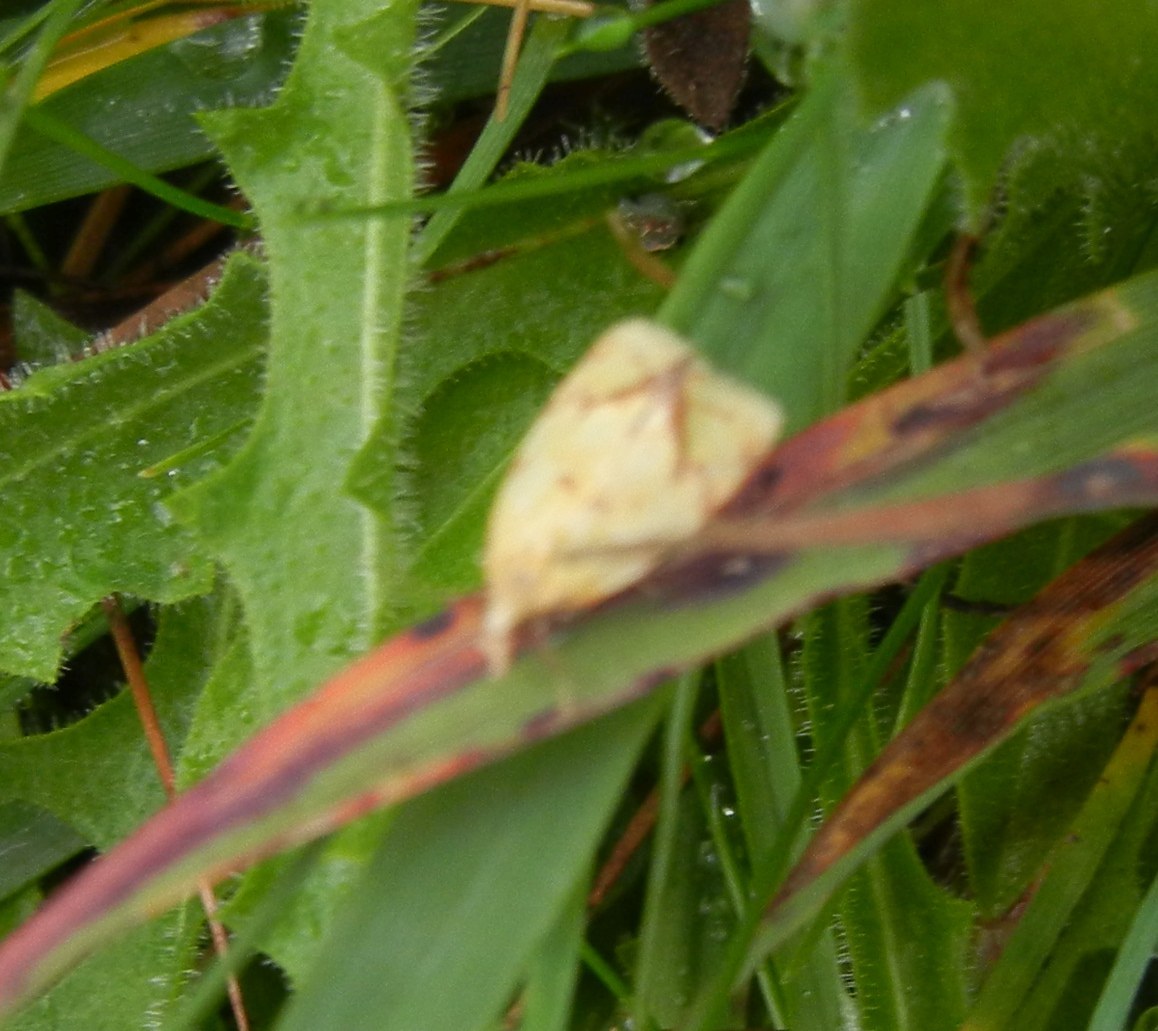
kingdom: Animalia
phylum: Arthropoda
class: Insecta
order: Lepidoptera
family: Tortricidae
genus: Agapeta
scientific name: Agapeta hamana
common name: Common yellow conch
